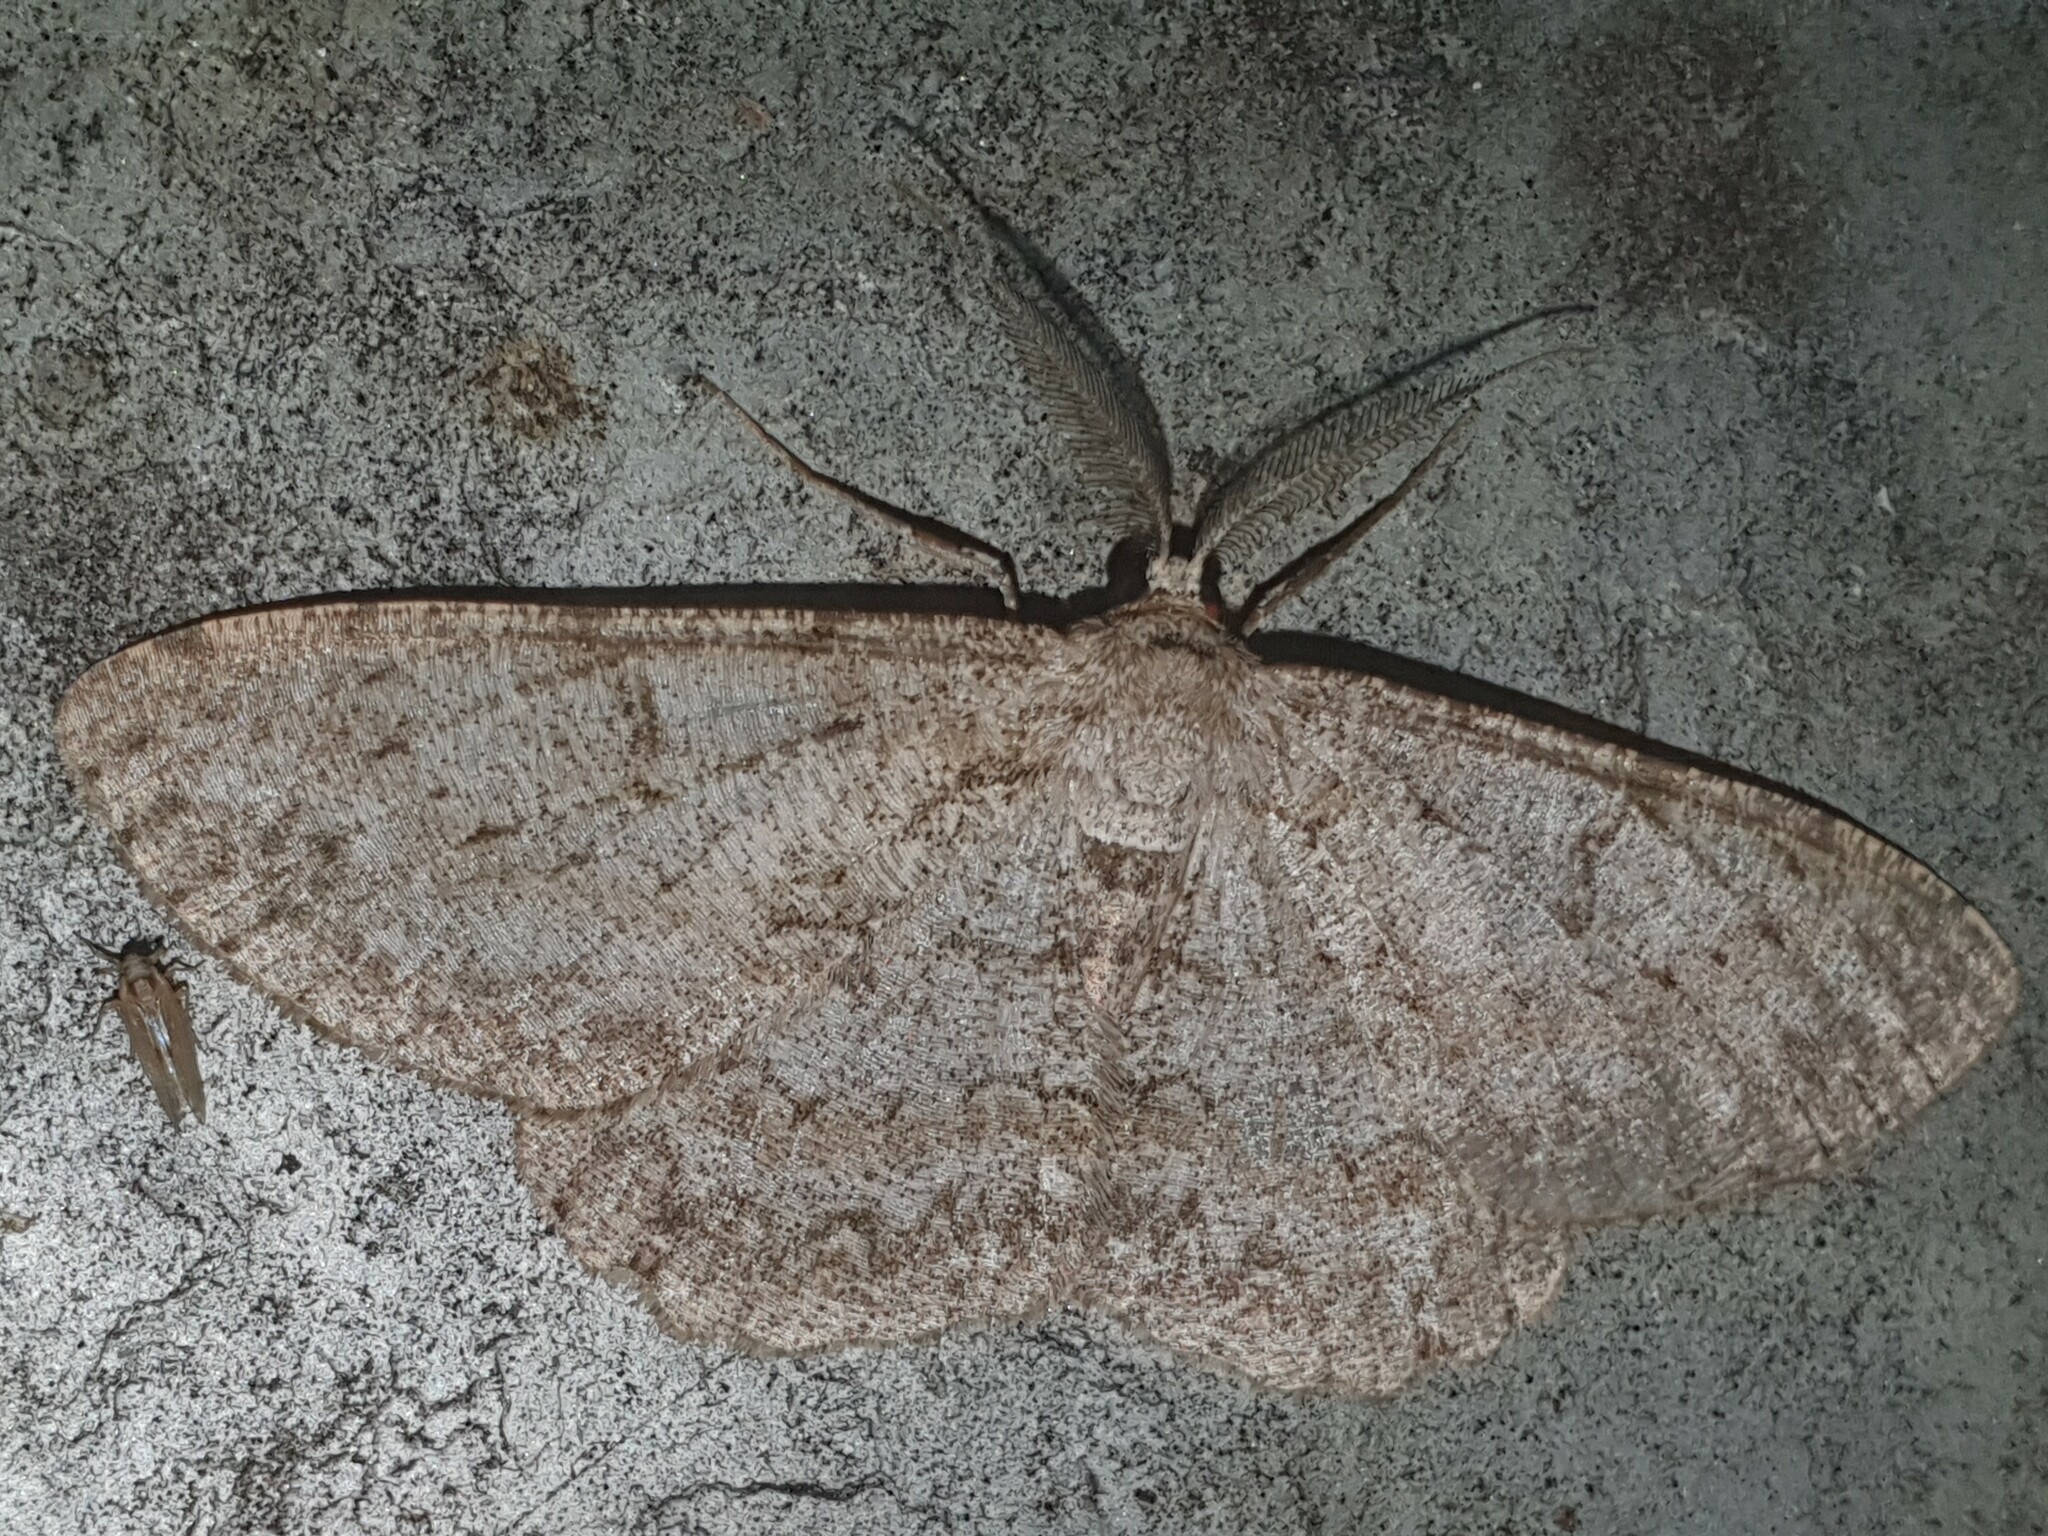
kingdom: Animalia
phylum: Arthropoda
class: Insecta
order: Lepidoptera
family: Geometridae
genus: Hypomecis
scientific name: Hypomecis punctinalis
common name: Pale oak beauty
